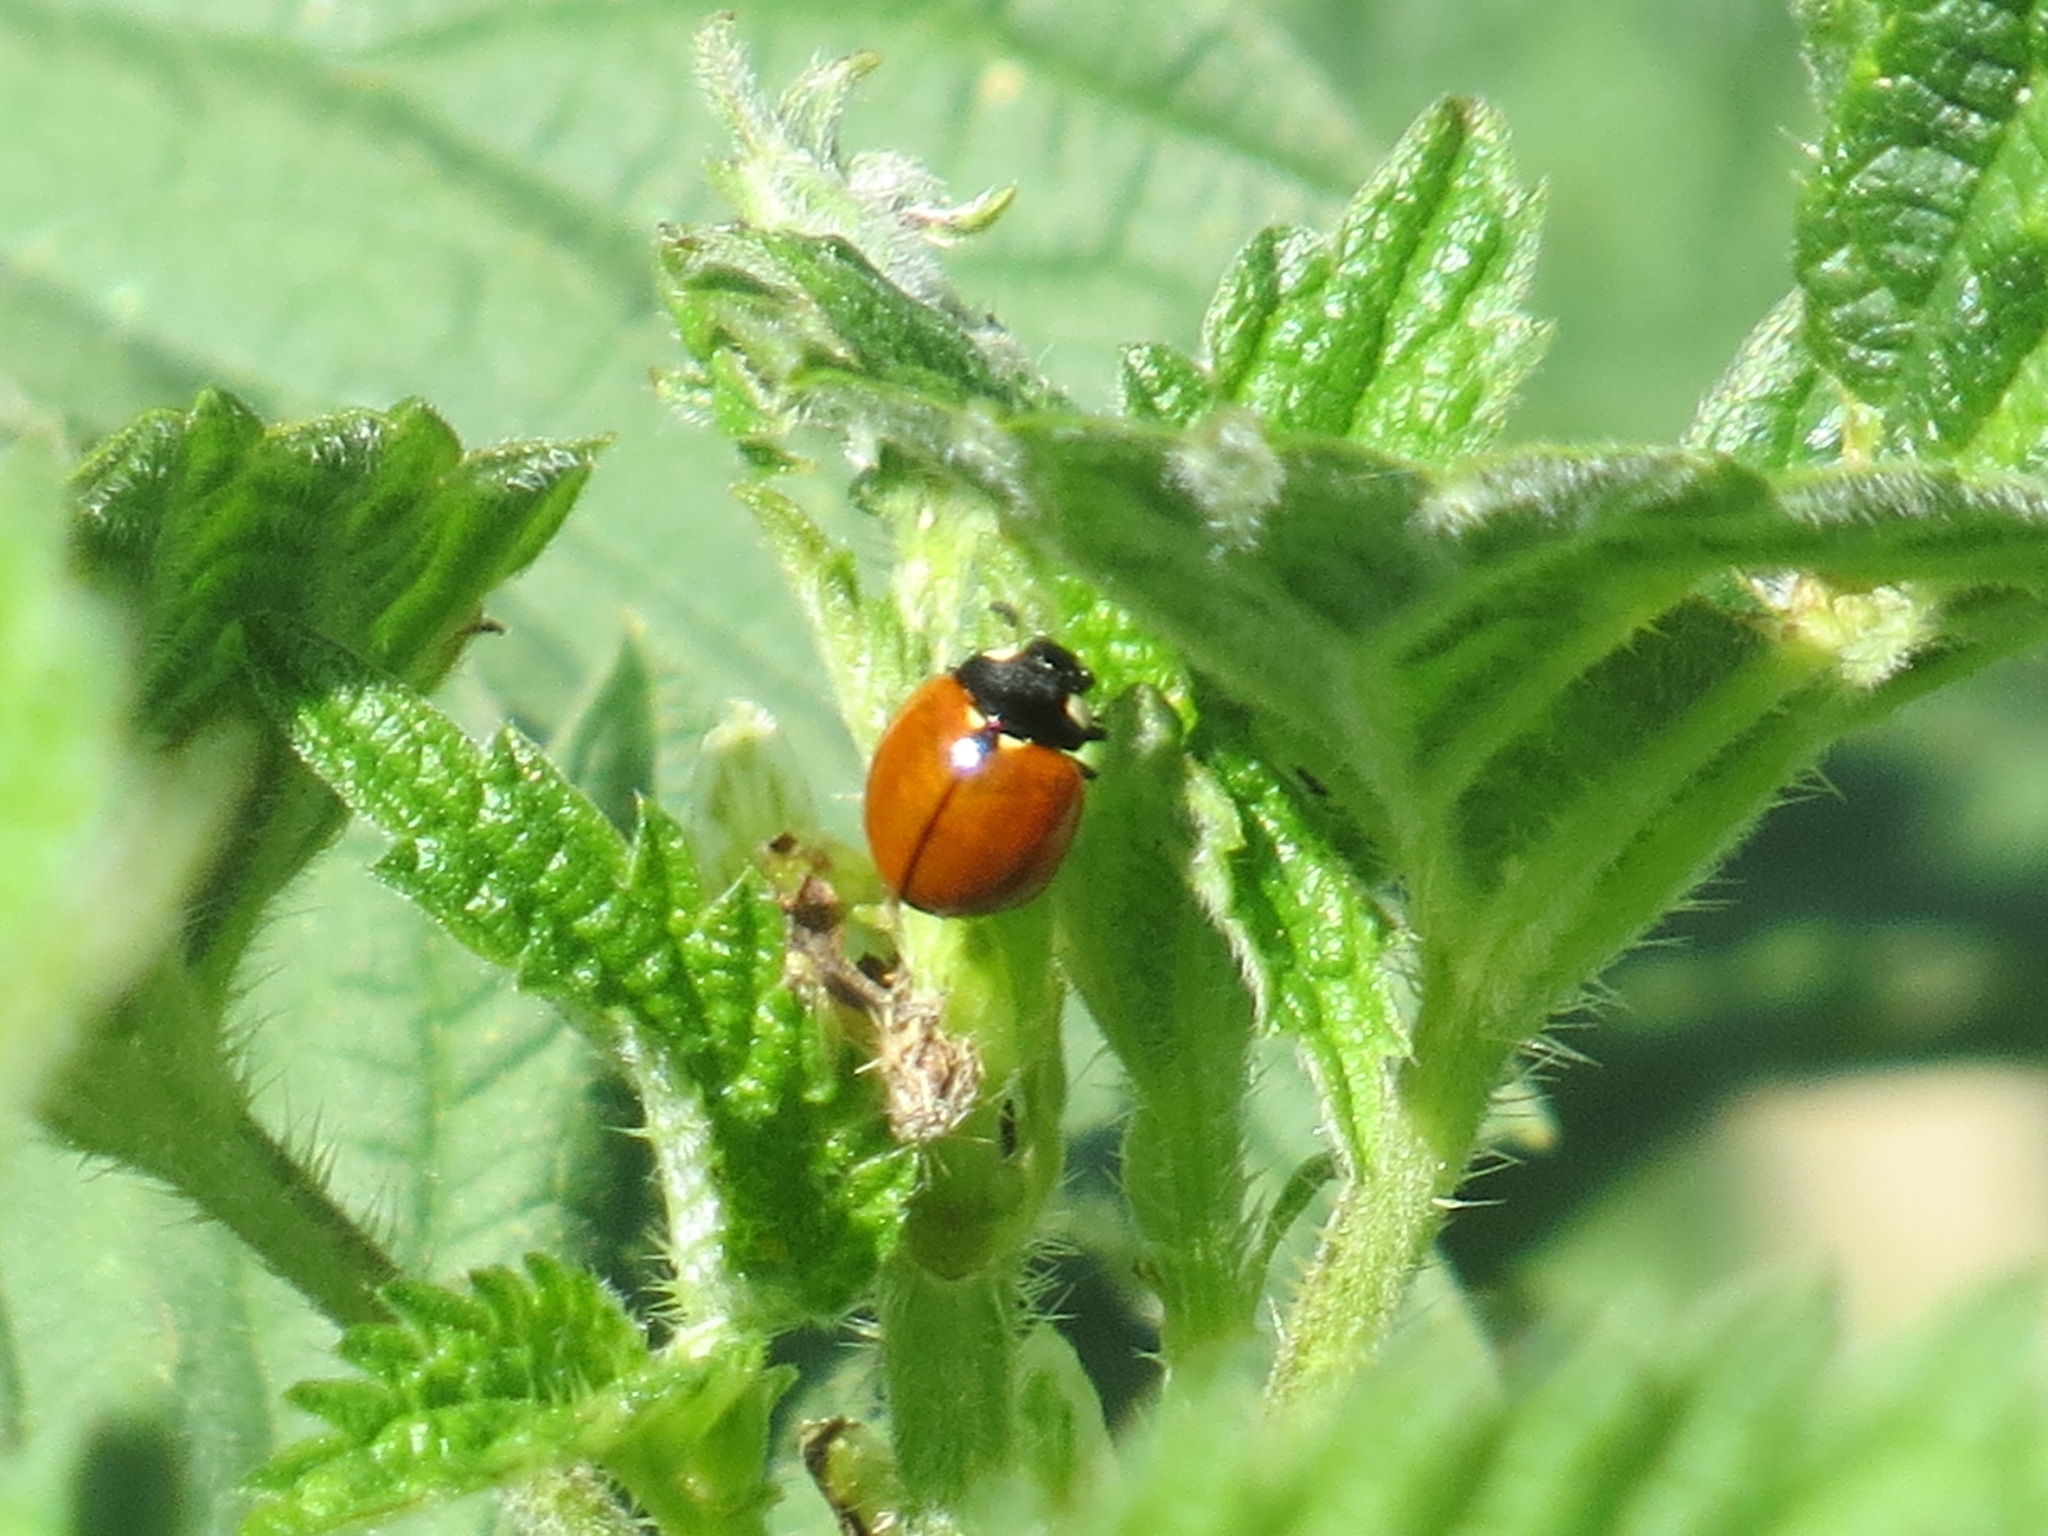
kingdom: Animalia
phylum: Arthropoda
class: Insecta
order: Coleoptera
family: Coccinellidae
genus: Coccinella
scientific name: Coccinella californica
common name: Lady beetle
